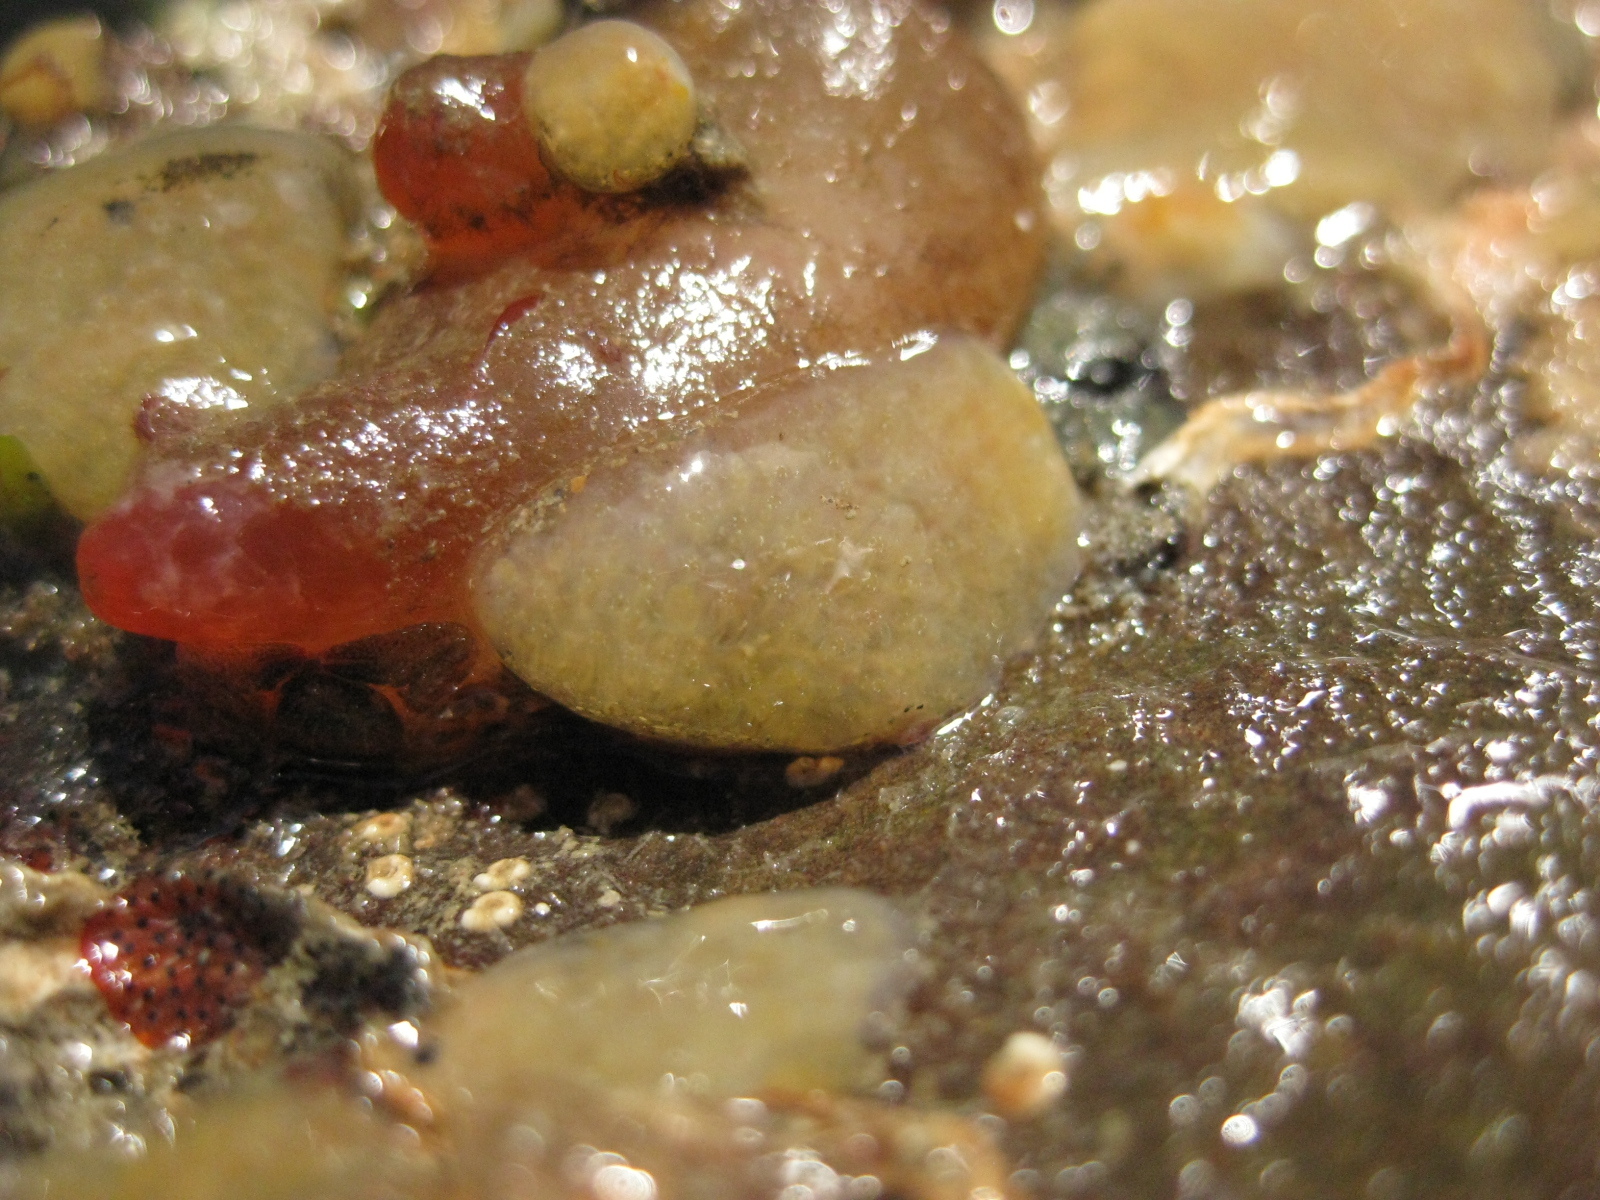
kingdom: Animalia
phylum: Chordata
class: Ascidiacea
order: Phlebobranchia
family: Corellidae
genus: Corella
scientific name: Corella eumyota
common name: Orange-tipped sea squirt
